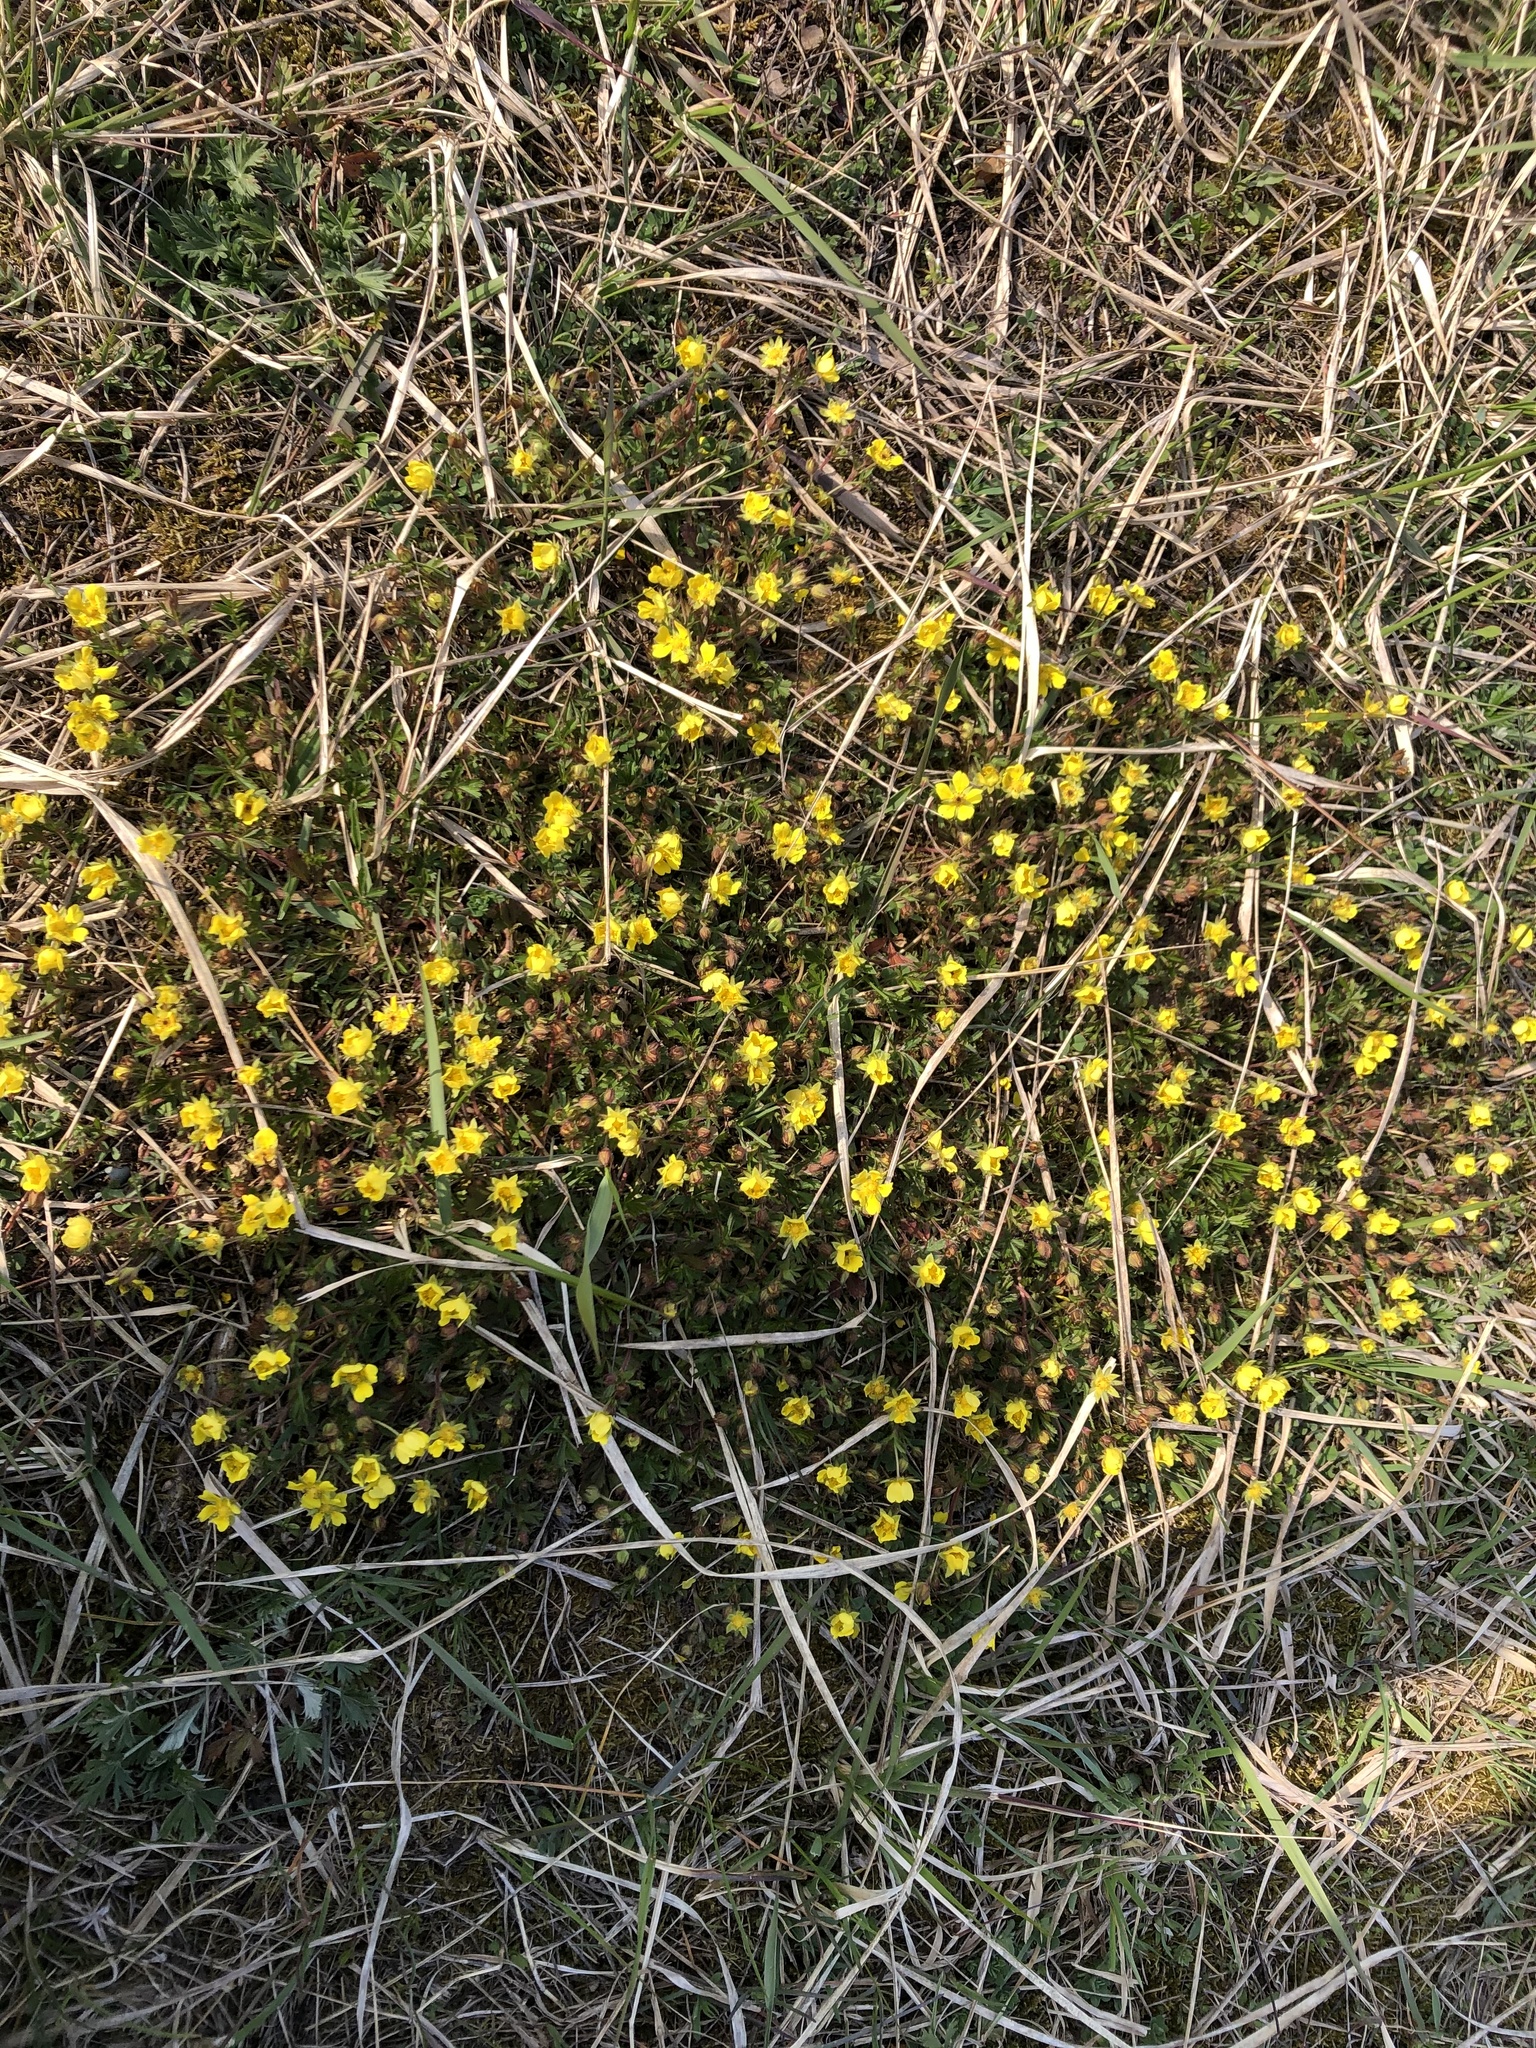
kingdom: Plantae
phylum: Tracheophyta
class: Magnoliopsida
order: Rosales
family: Rosaceae
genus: Potentilla
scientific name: Potentilla verna
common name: Spring cinquefoil
